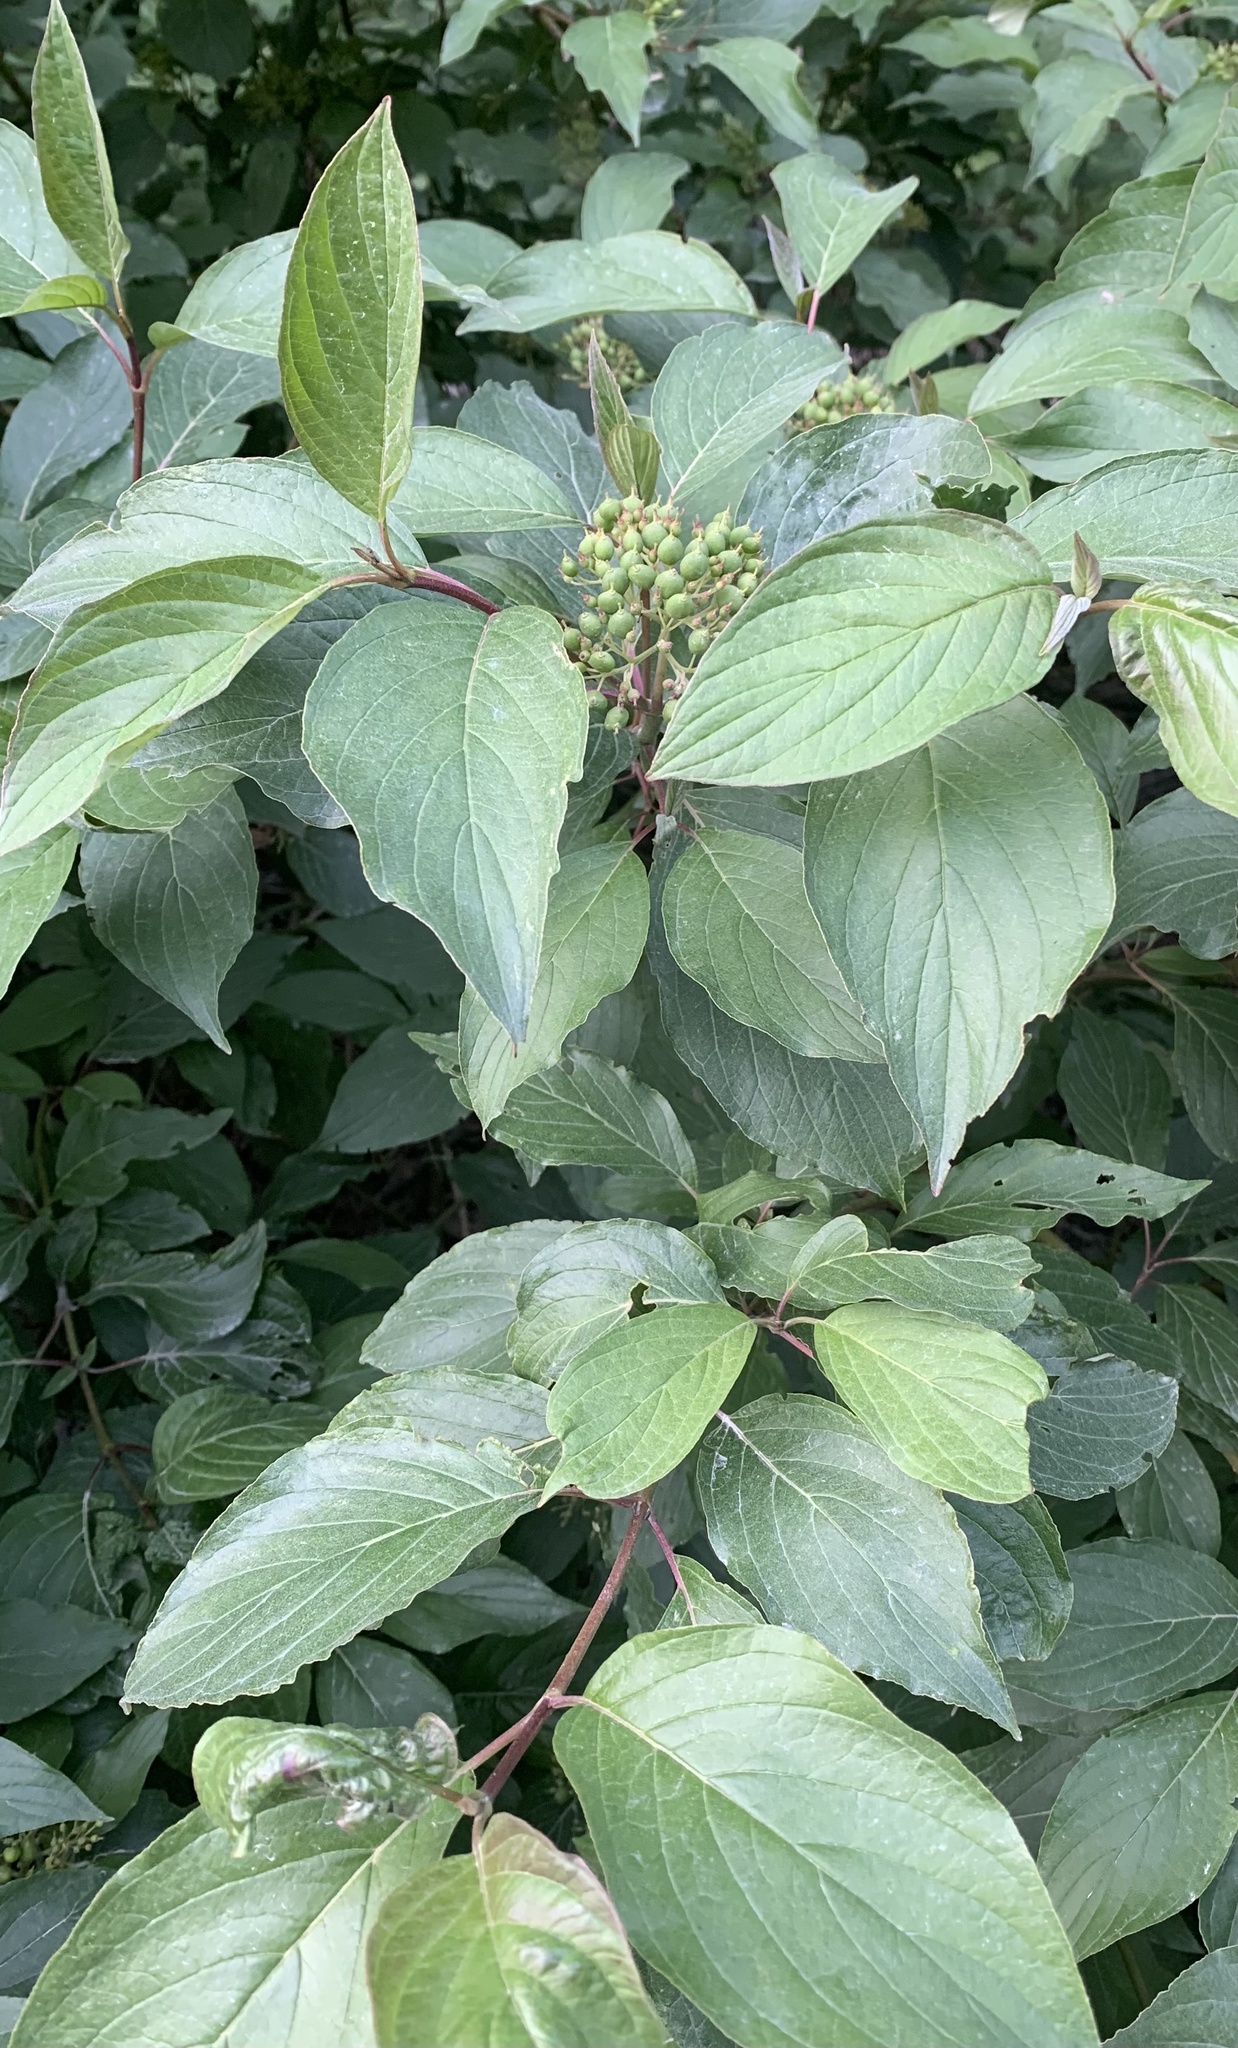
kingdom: Plantae
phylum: Tracheophyta
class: Magnoliopsida
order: Cornales
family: Cornaceae
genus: Cornus
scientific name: Cornus sericea
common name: Red-osier dogwood
